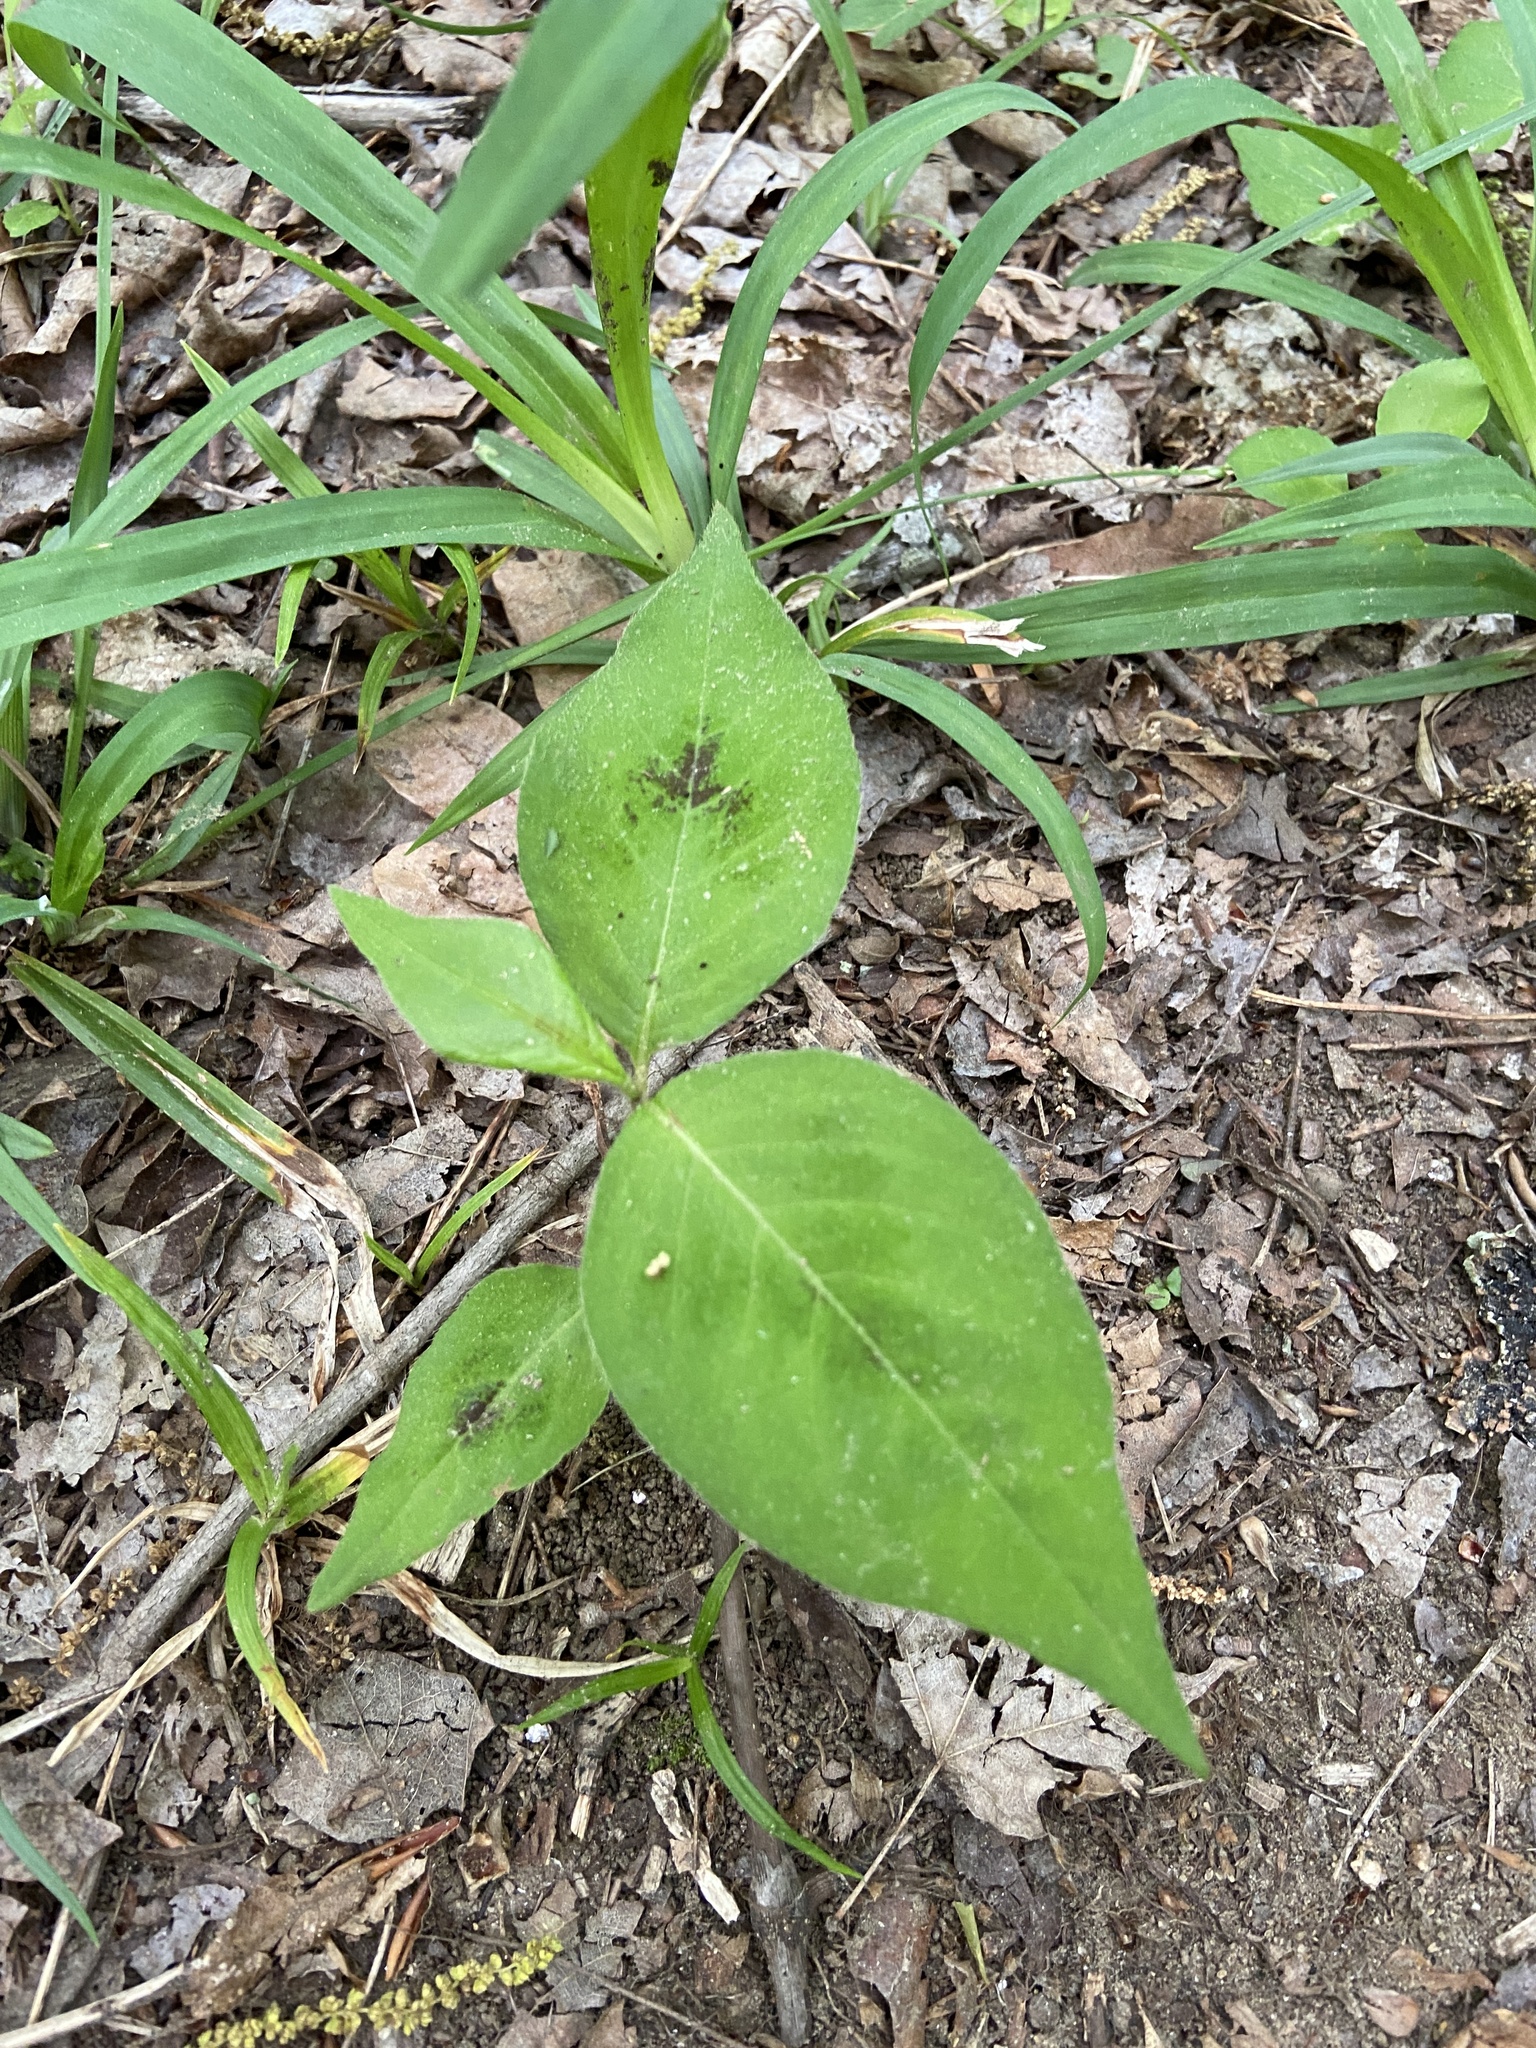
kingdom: Plantae
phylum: Tracheophyta
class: Magnoliopsida
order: Caryophyllales
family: Polygonaceae
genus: Persicaria
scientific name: Persicaria virginiana
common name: Jumpseed
